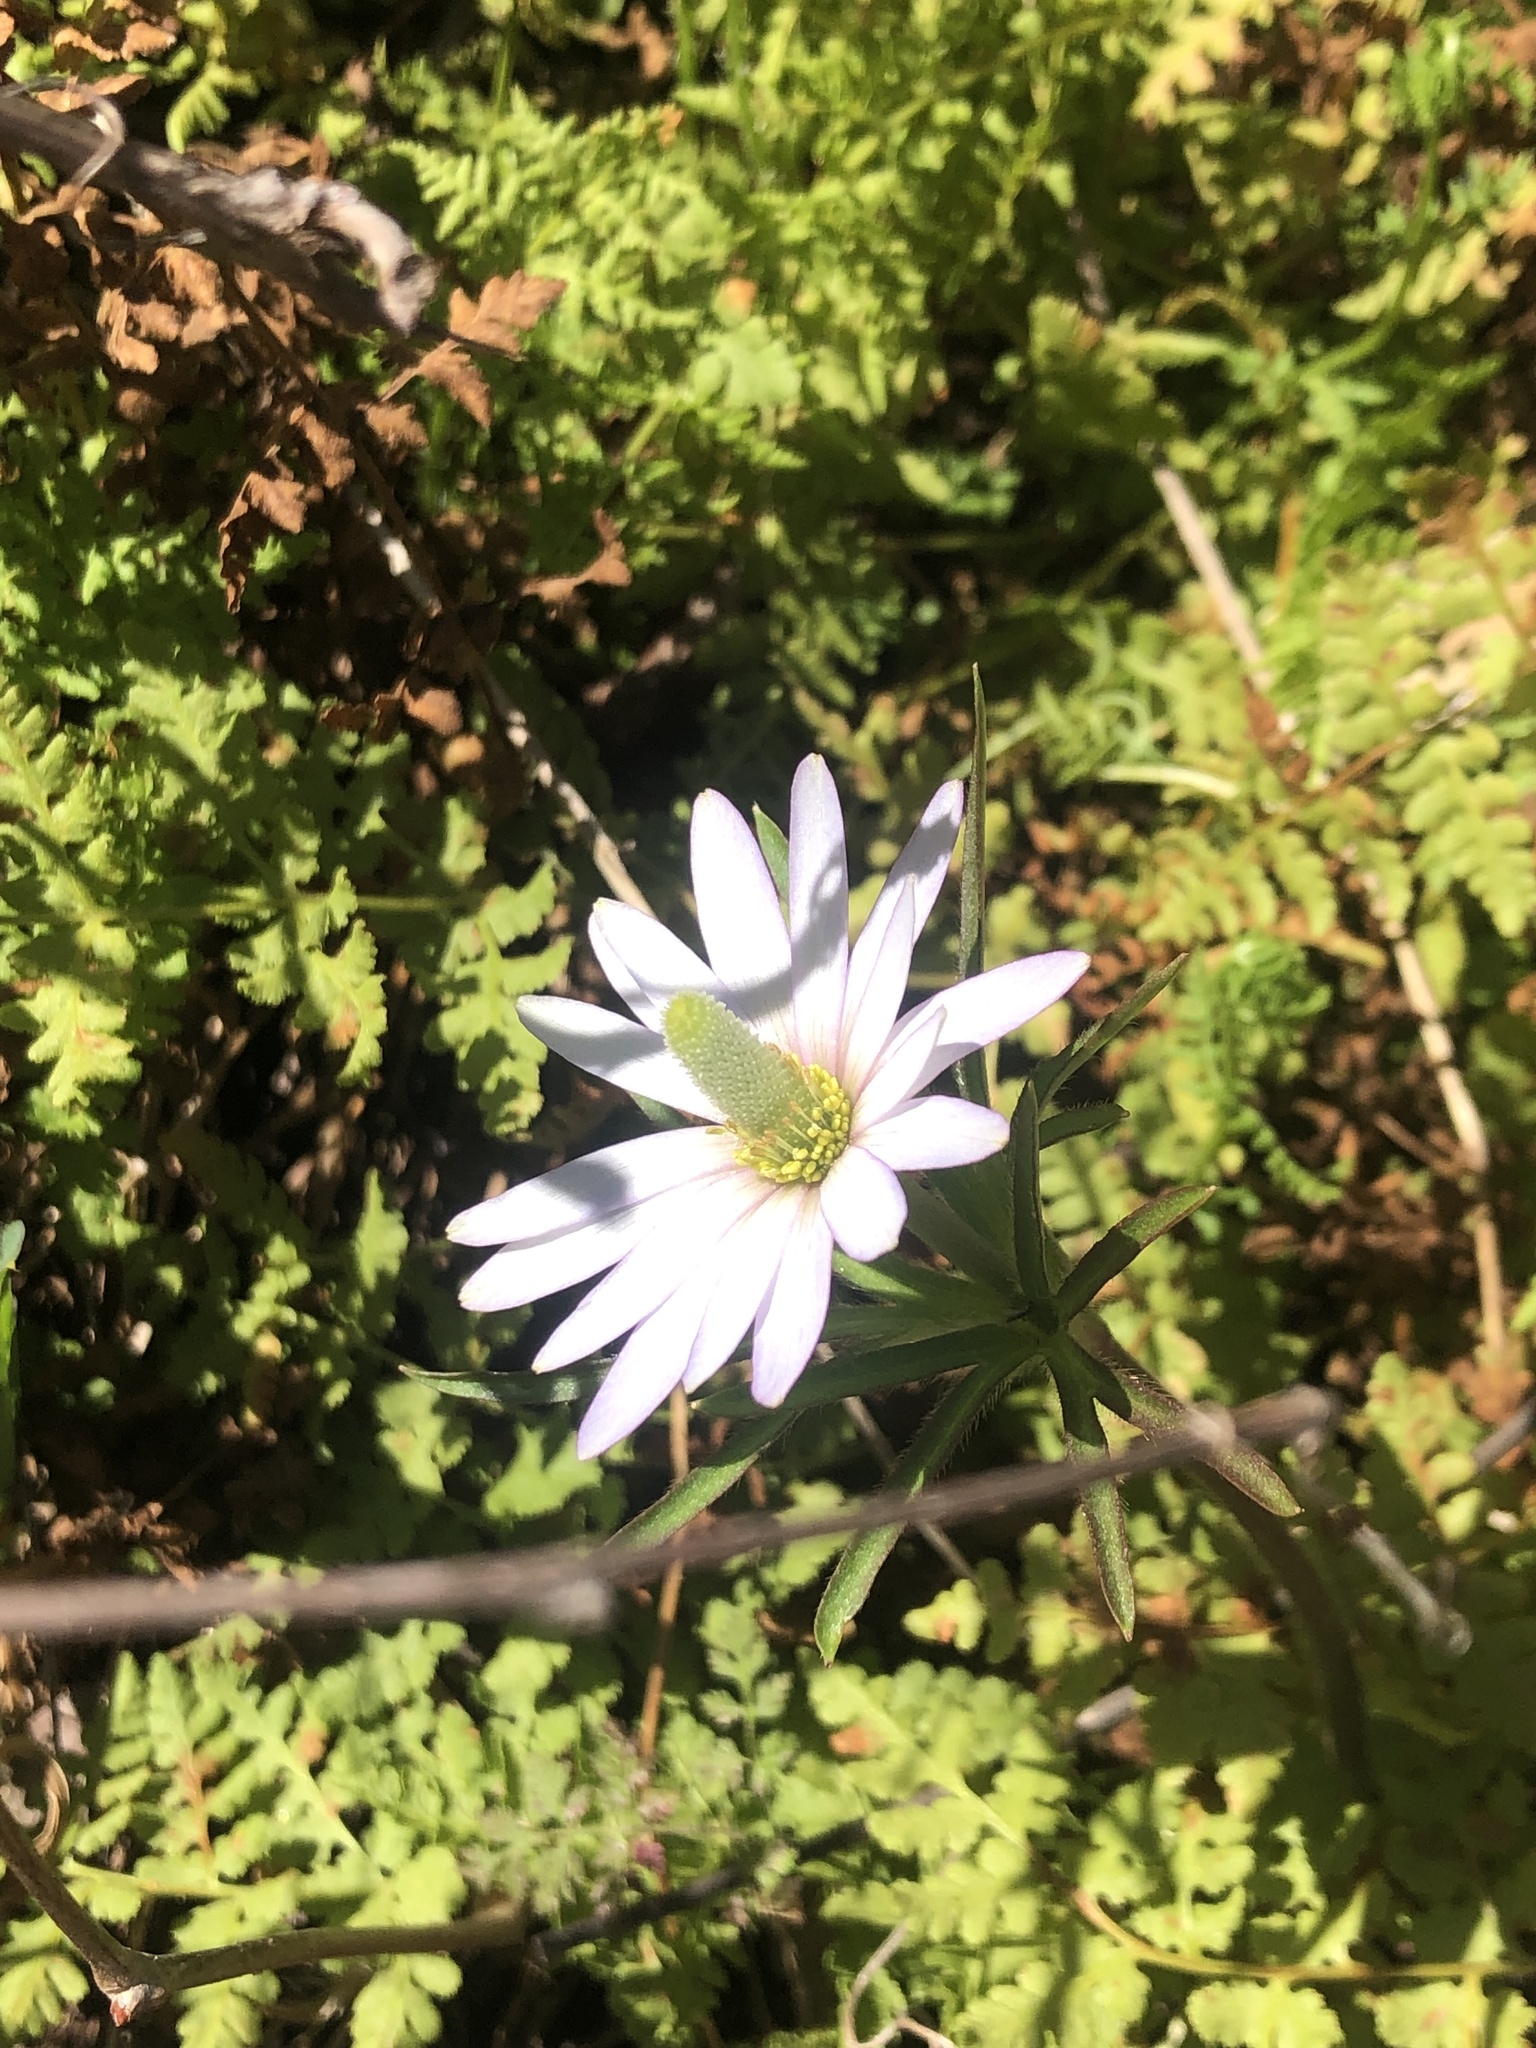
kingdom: Plantae
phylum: Tracheophyta
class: Magnoliopsida
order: Ranunculales
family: Ranunculaceae
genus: Anemone
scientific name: Anemone berlandieri
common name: Ten-petal anemone
